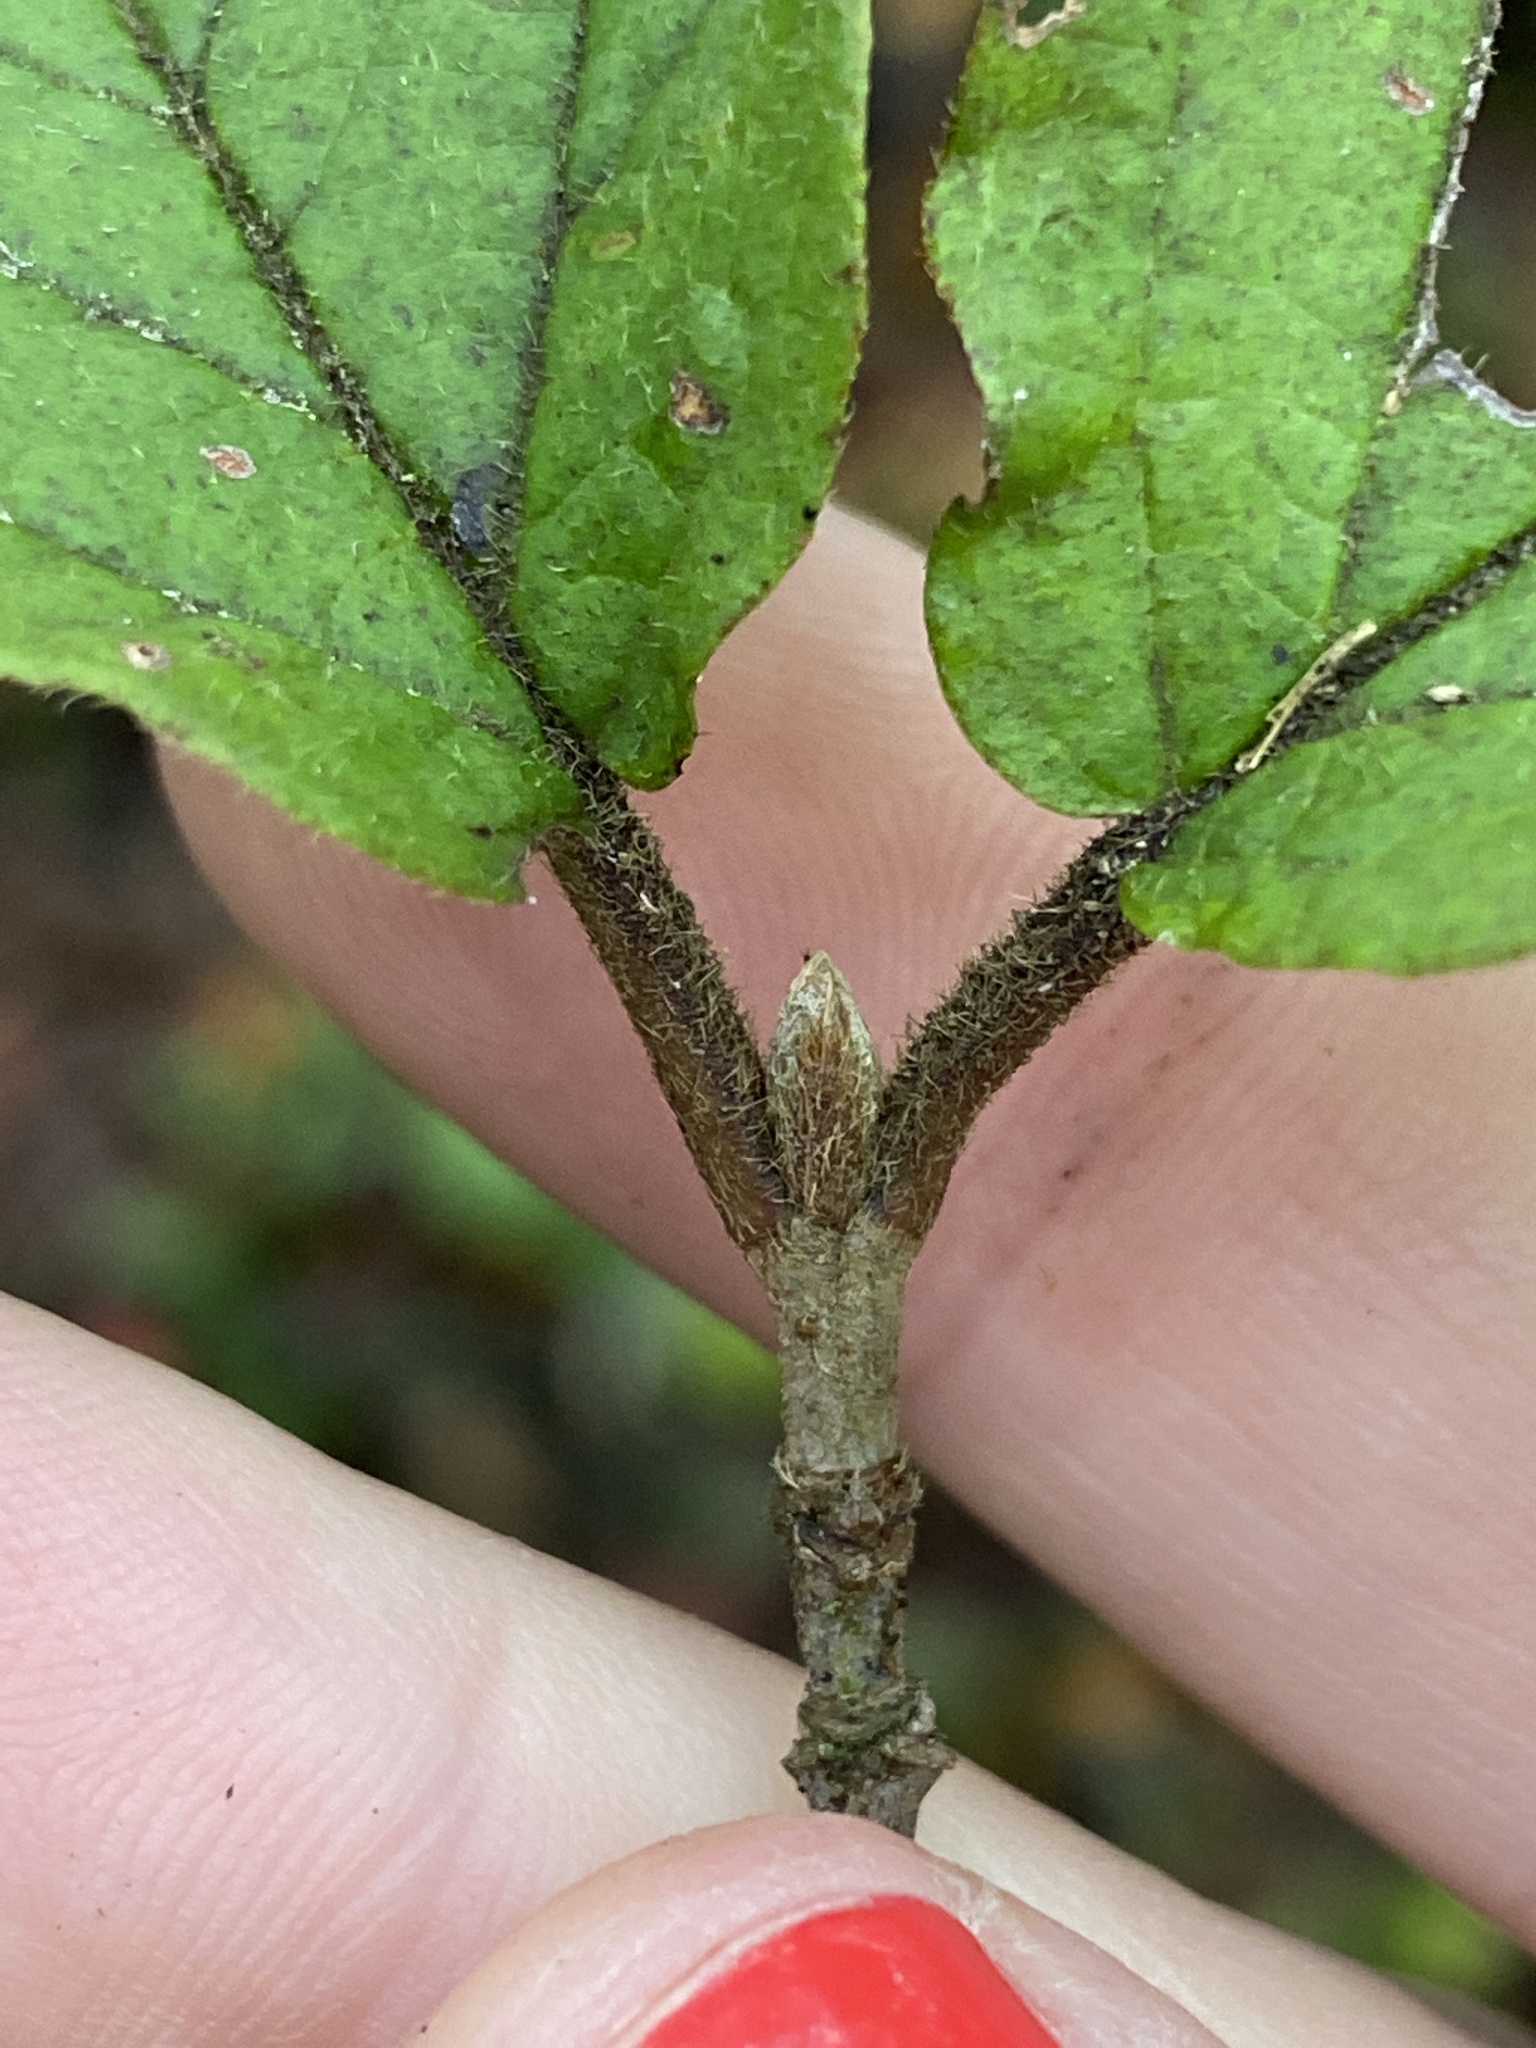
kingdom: Plantae
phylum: Tracheophyta
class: Magnoliopsida
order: Dipsacales
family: Viburnaceae
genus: Viburnum
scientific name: Viburnum dilatatum
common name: Linden arrowwood
